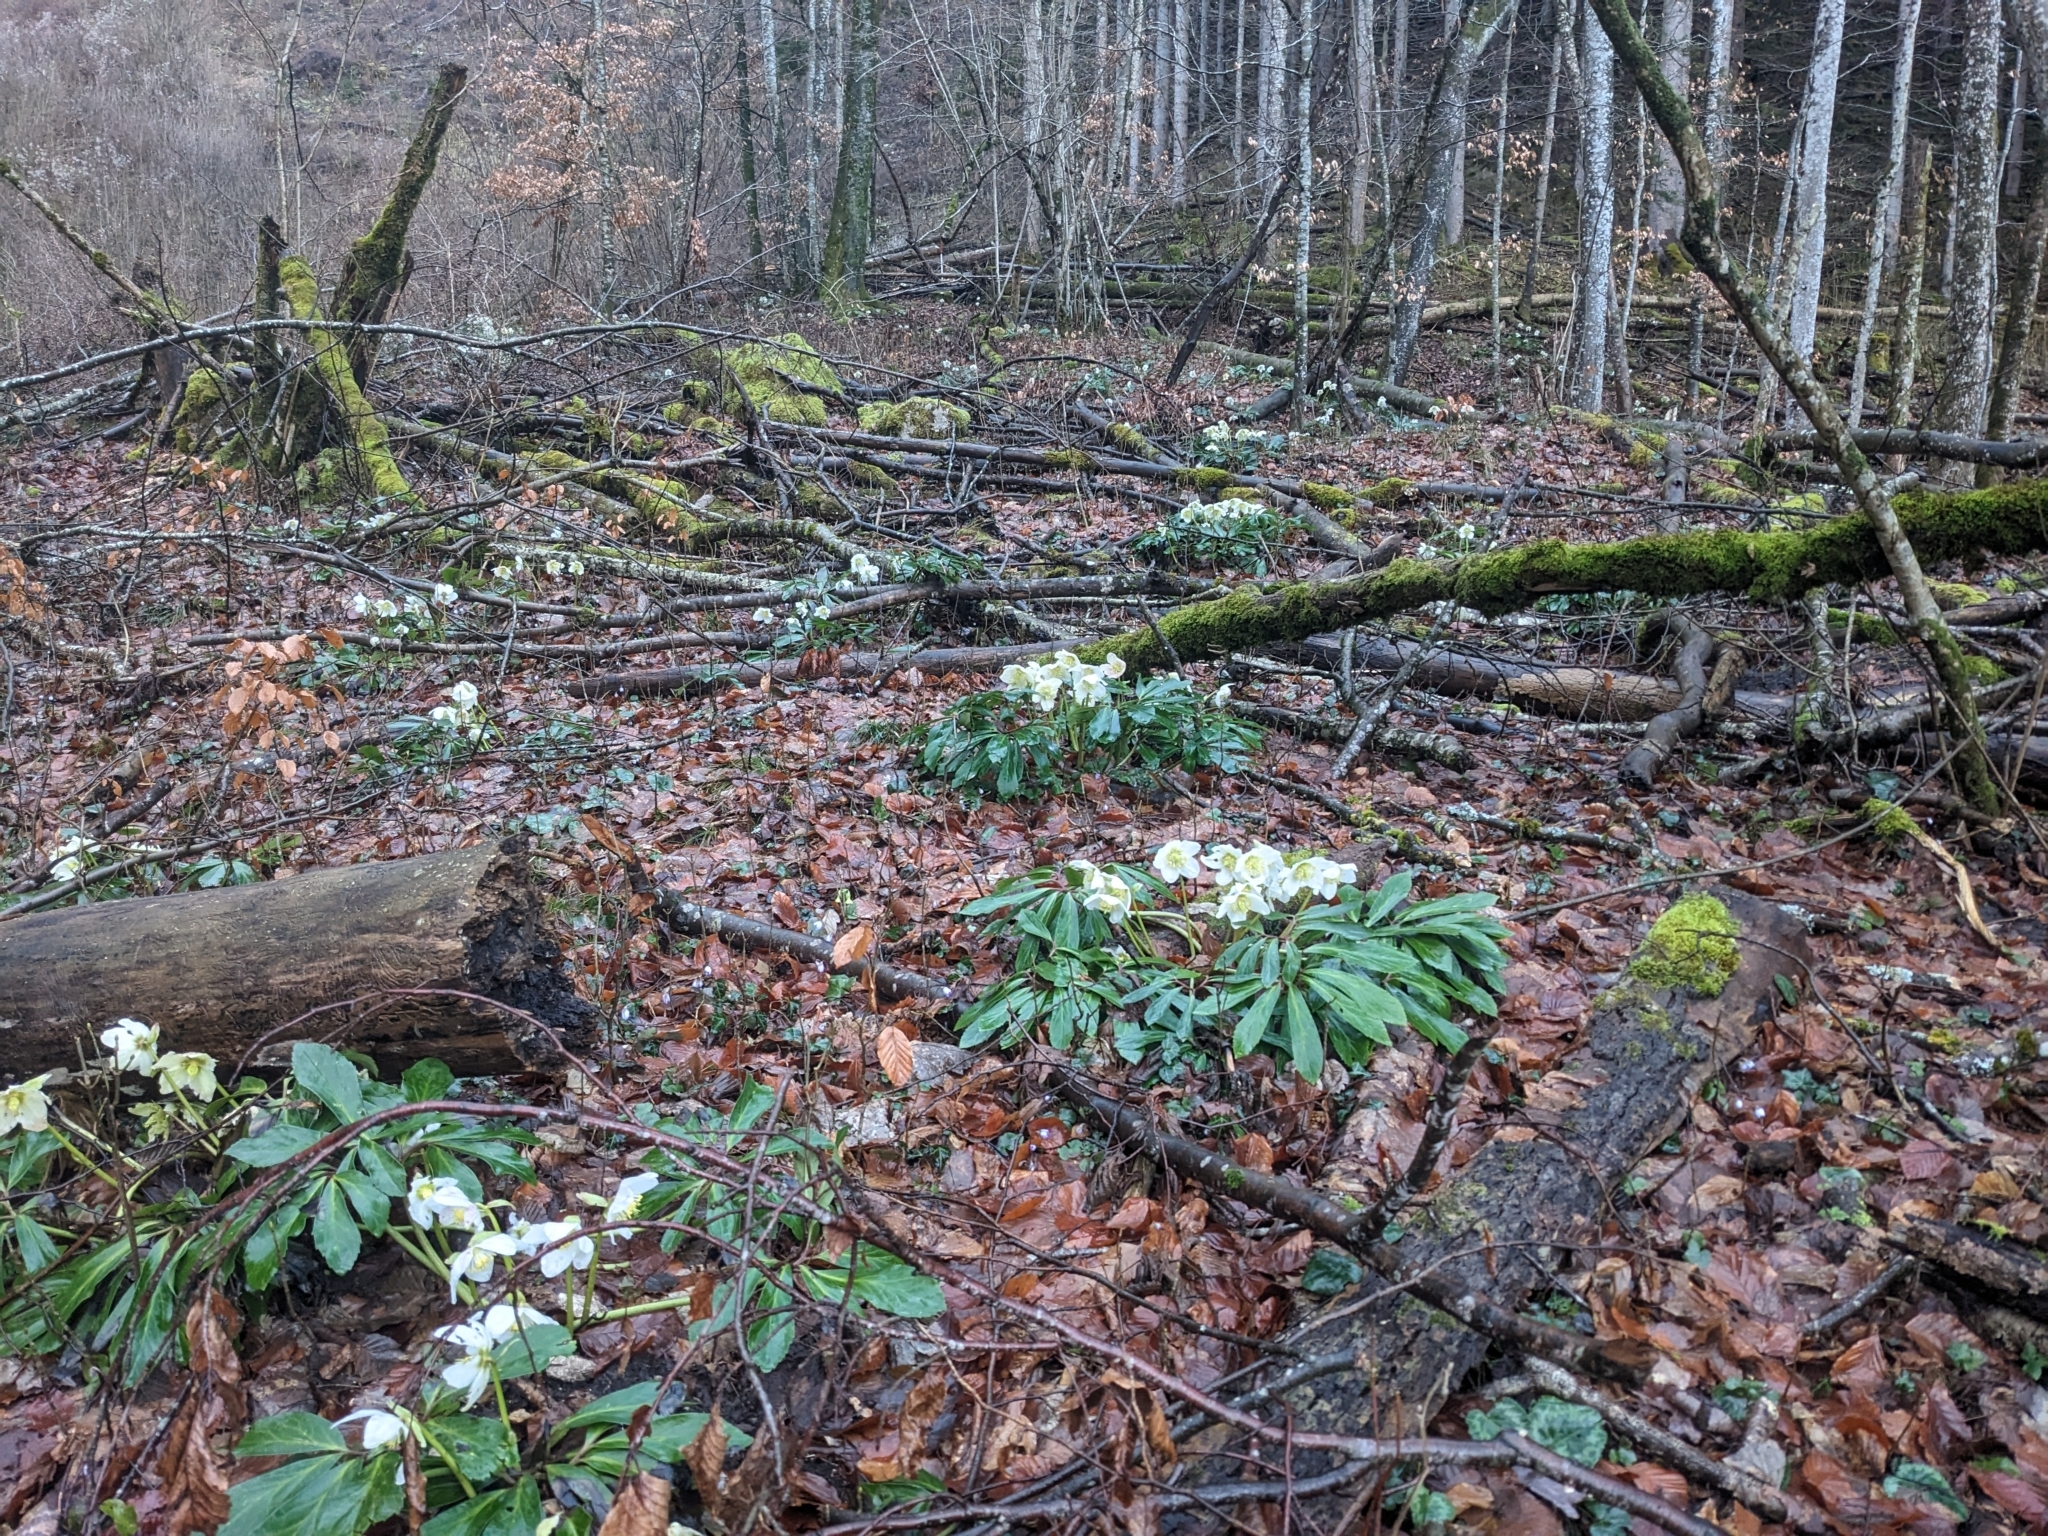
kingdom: Plantae
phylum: Tracheophyta
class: Magnoliopsida
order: Ranunculales
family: Ranunculaceae
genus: Helleborus
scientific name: Helleborus niger
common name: Black hellebore
